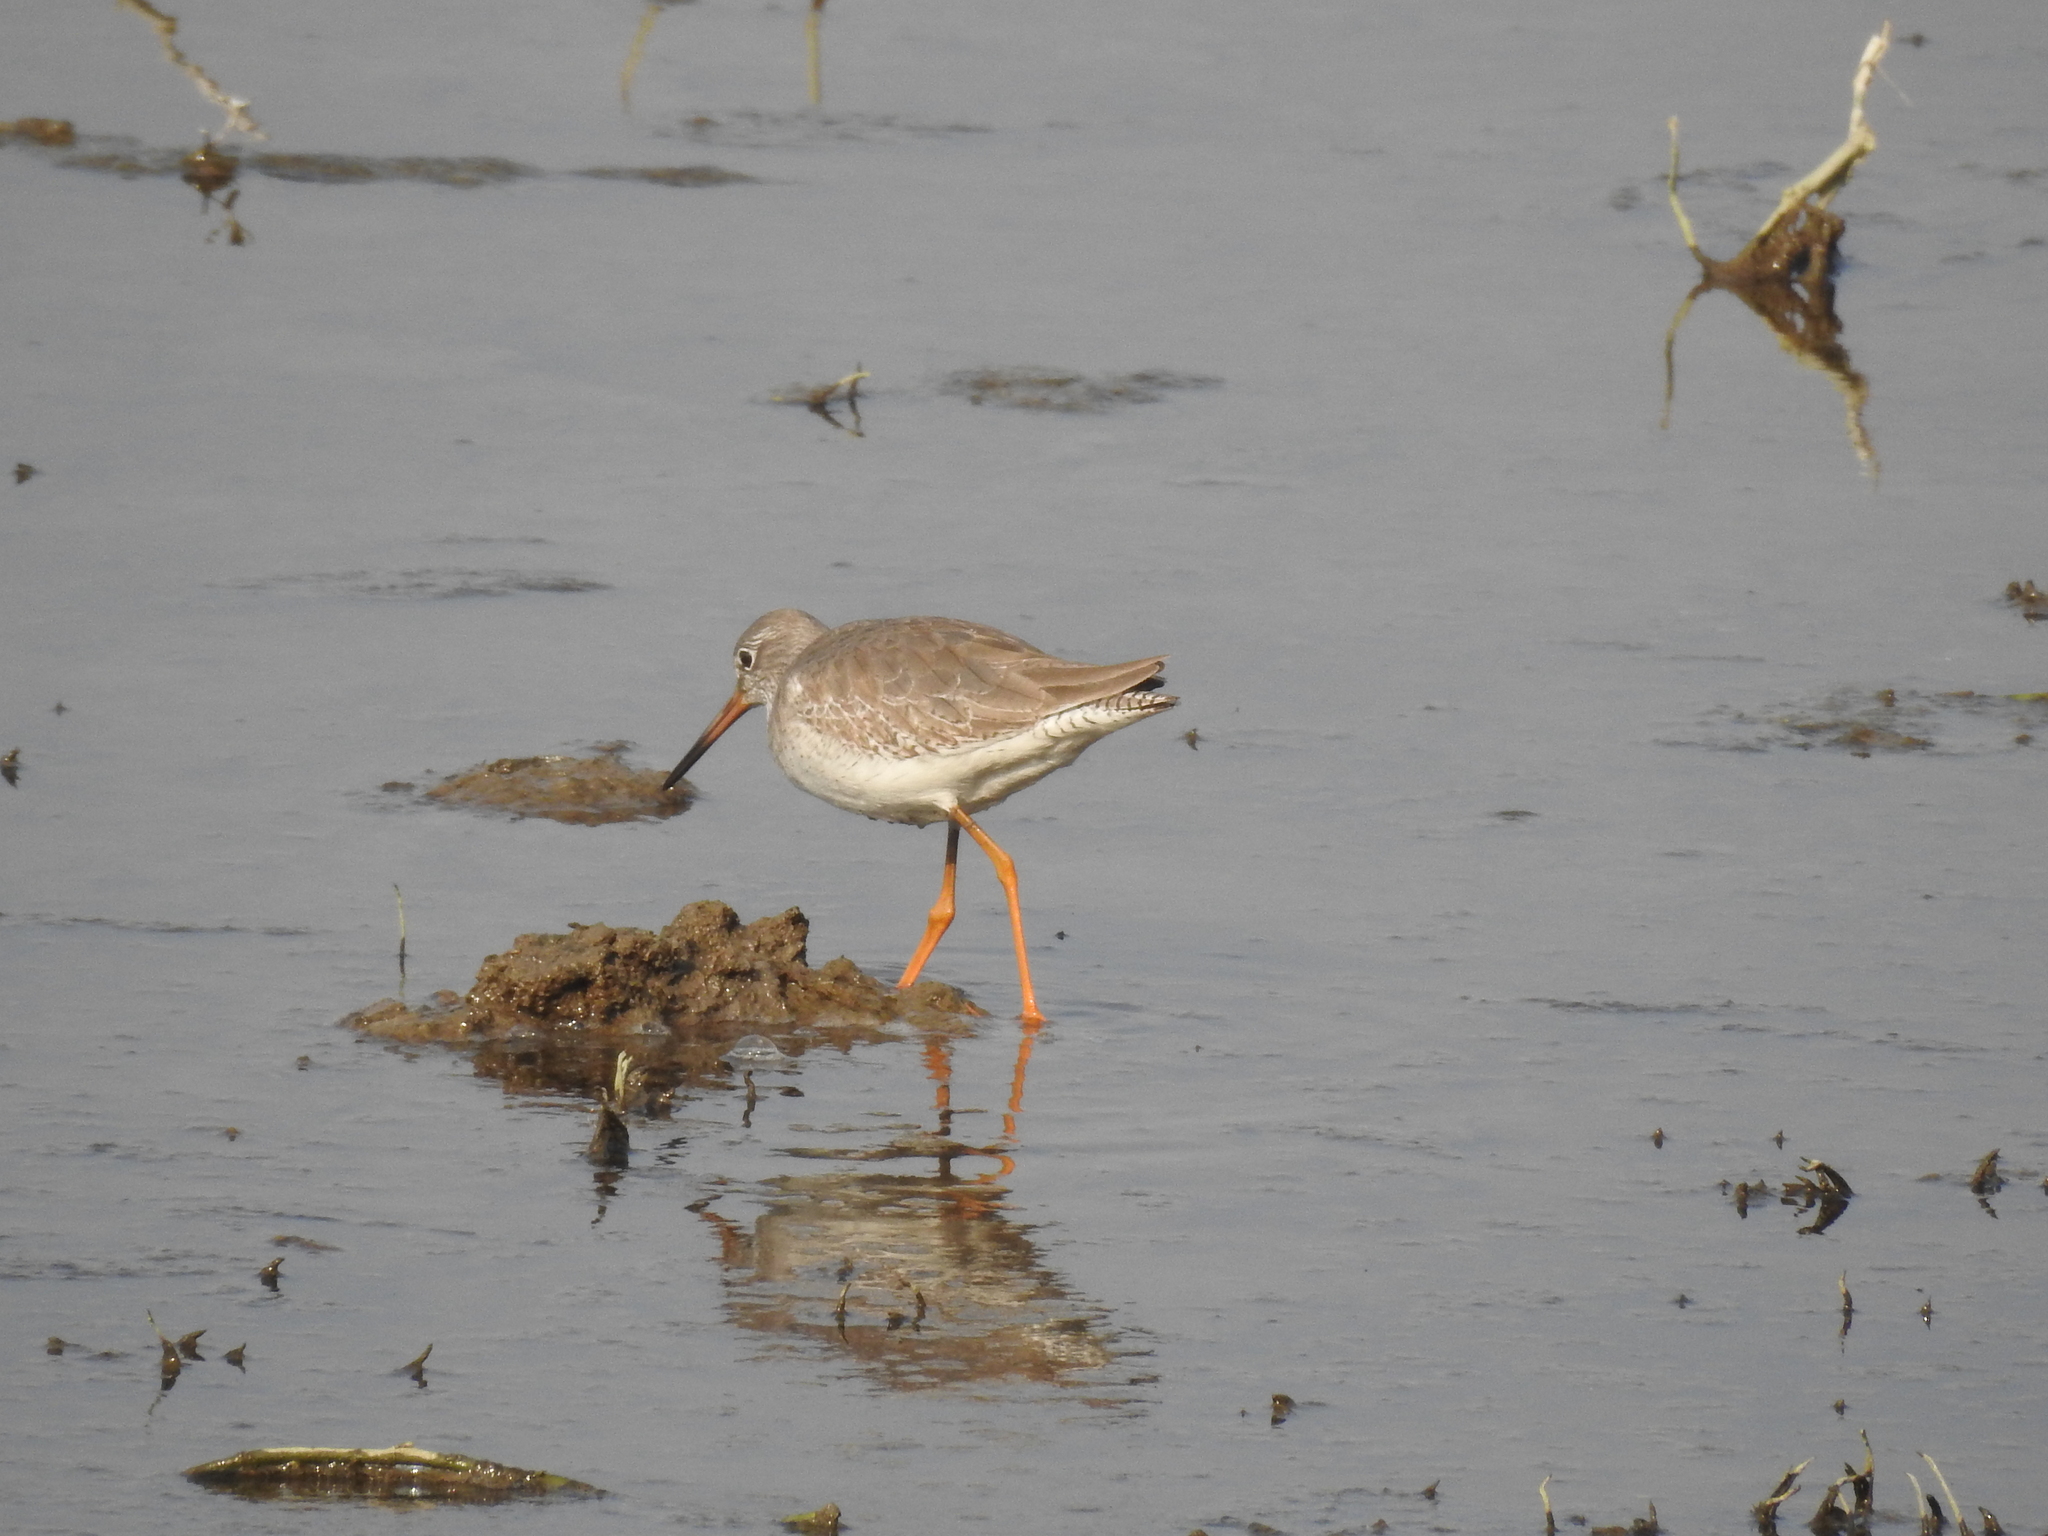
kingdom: Animalia
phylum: Chordata
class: Aves
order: Charadriiformes
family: Scolopacidae
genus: Tringa
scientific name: Tringa totanus
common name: Common redshank
